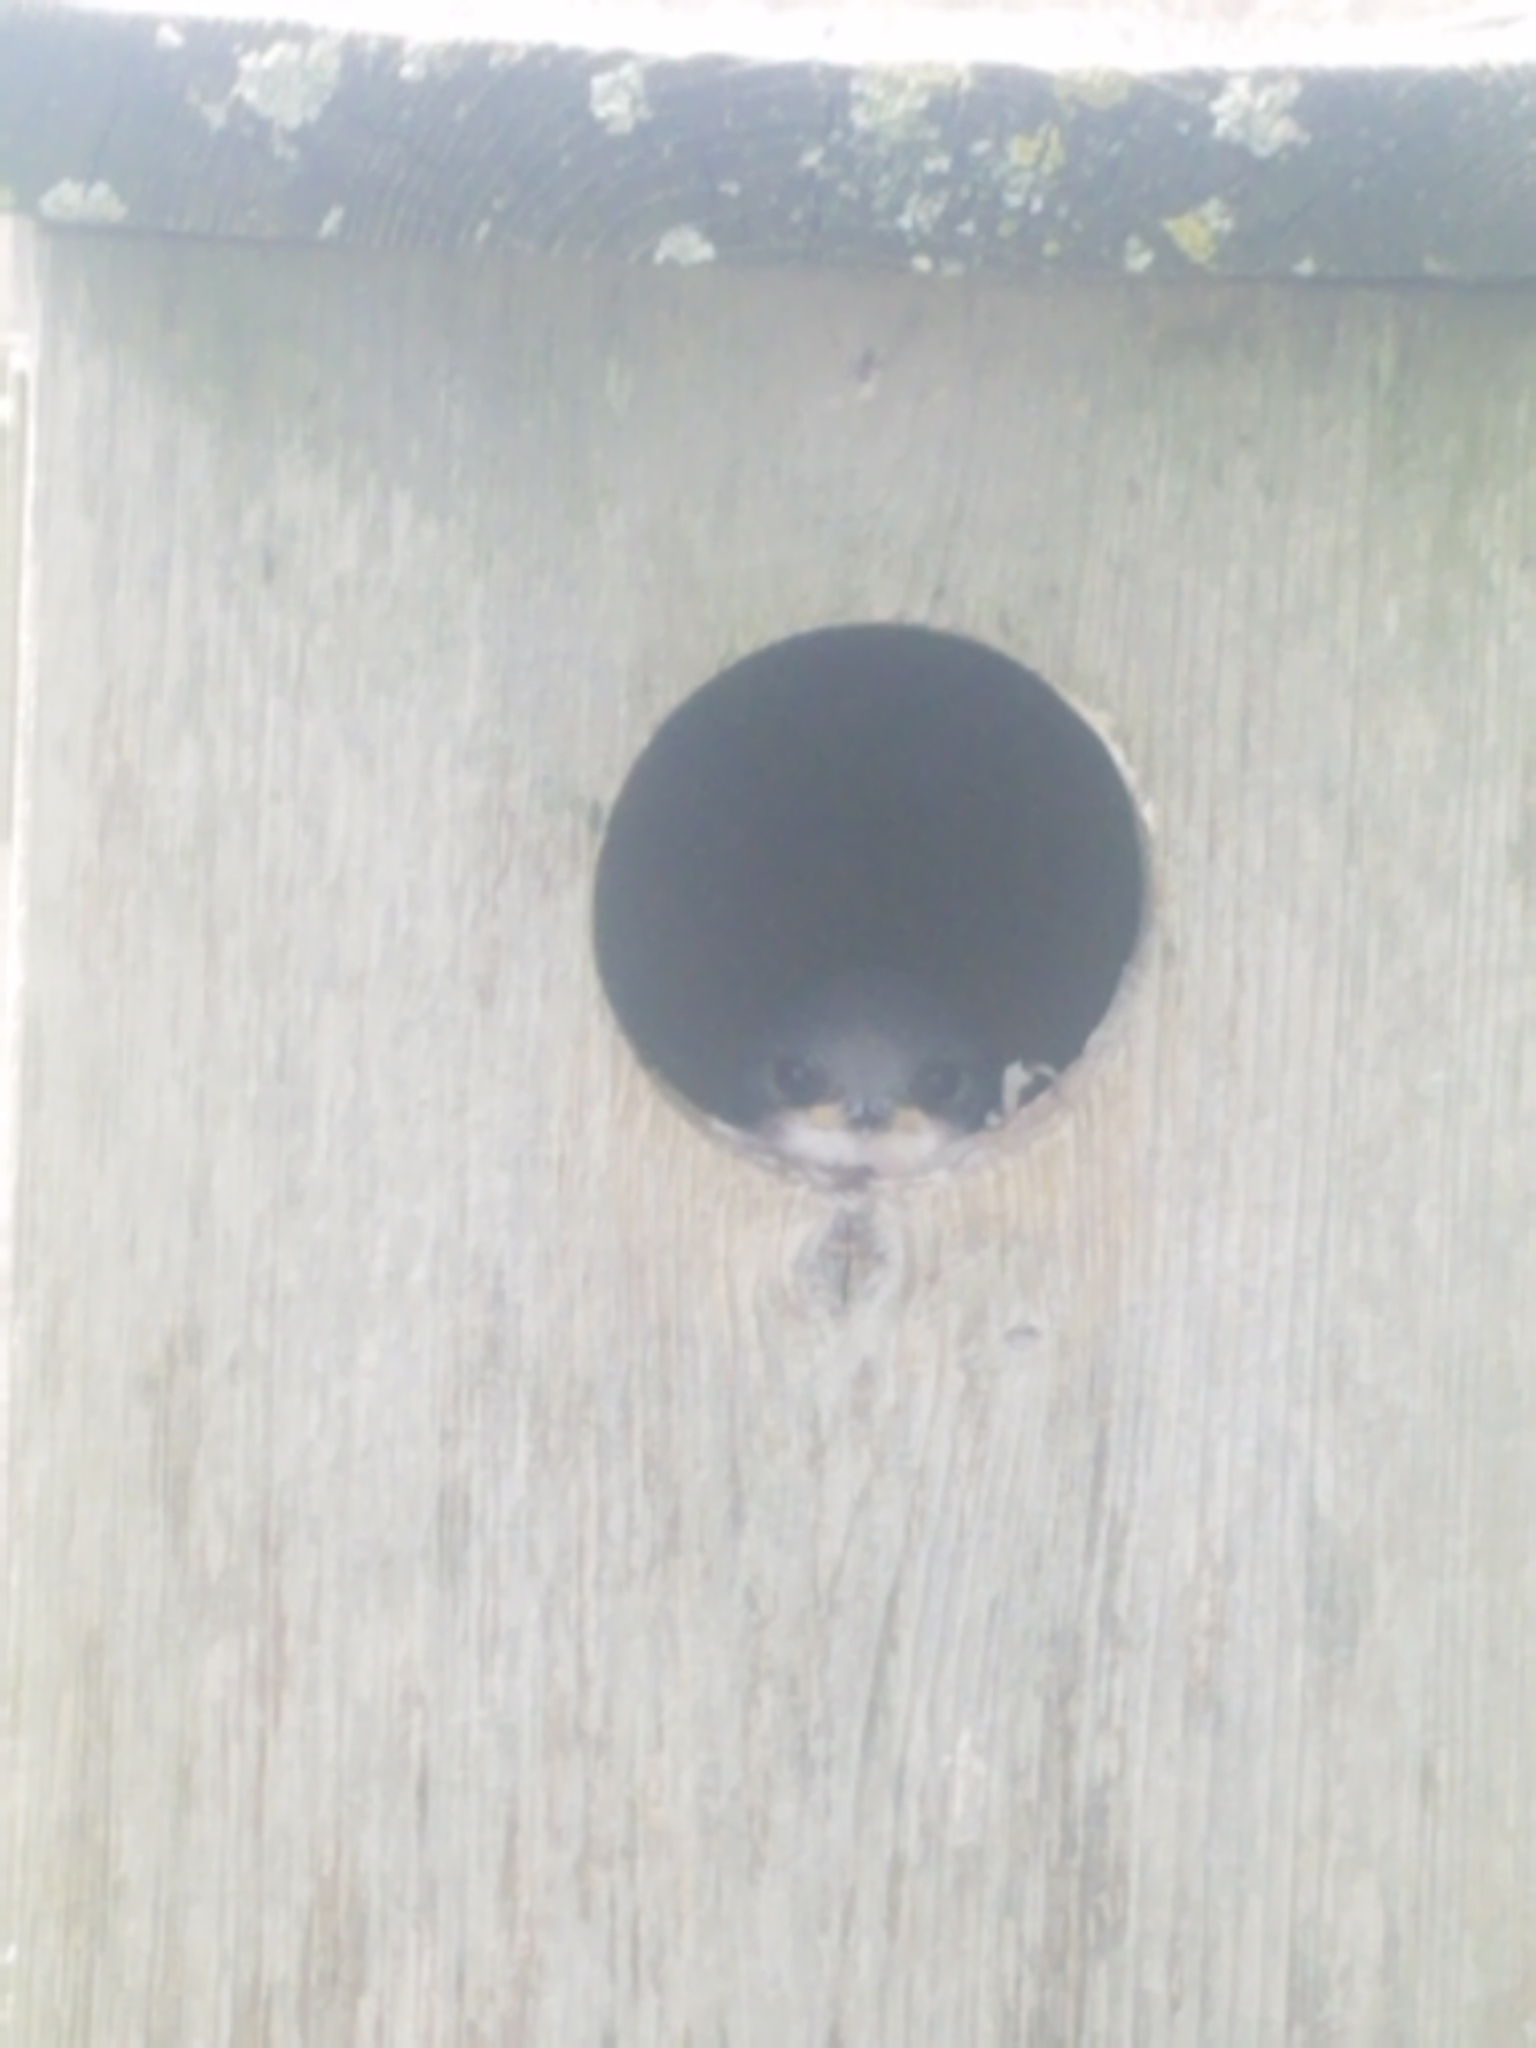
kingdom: Animalia
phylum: Chordata
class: Aves
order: Passeriformes
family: Hirundinidae
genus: Tachycineta
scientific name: Tachycineta bicolor
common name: Tree swallow
